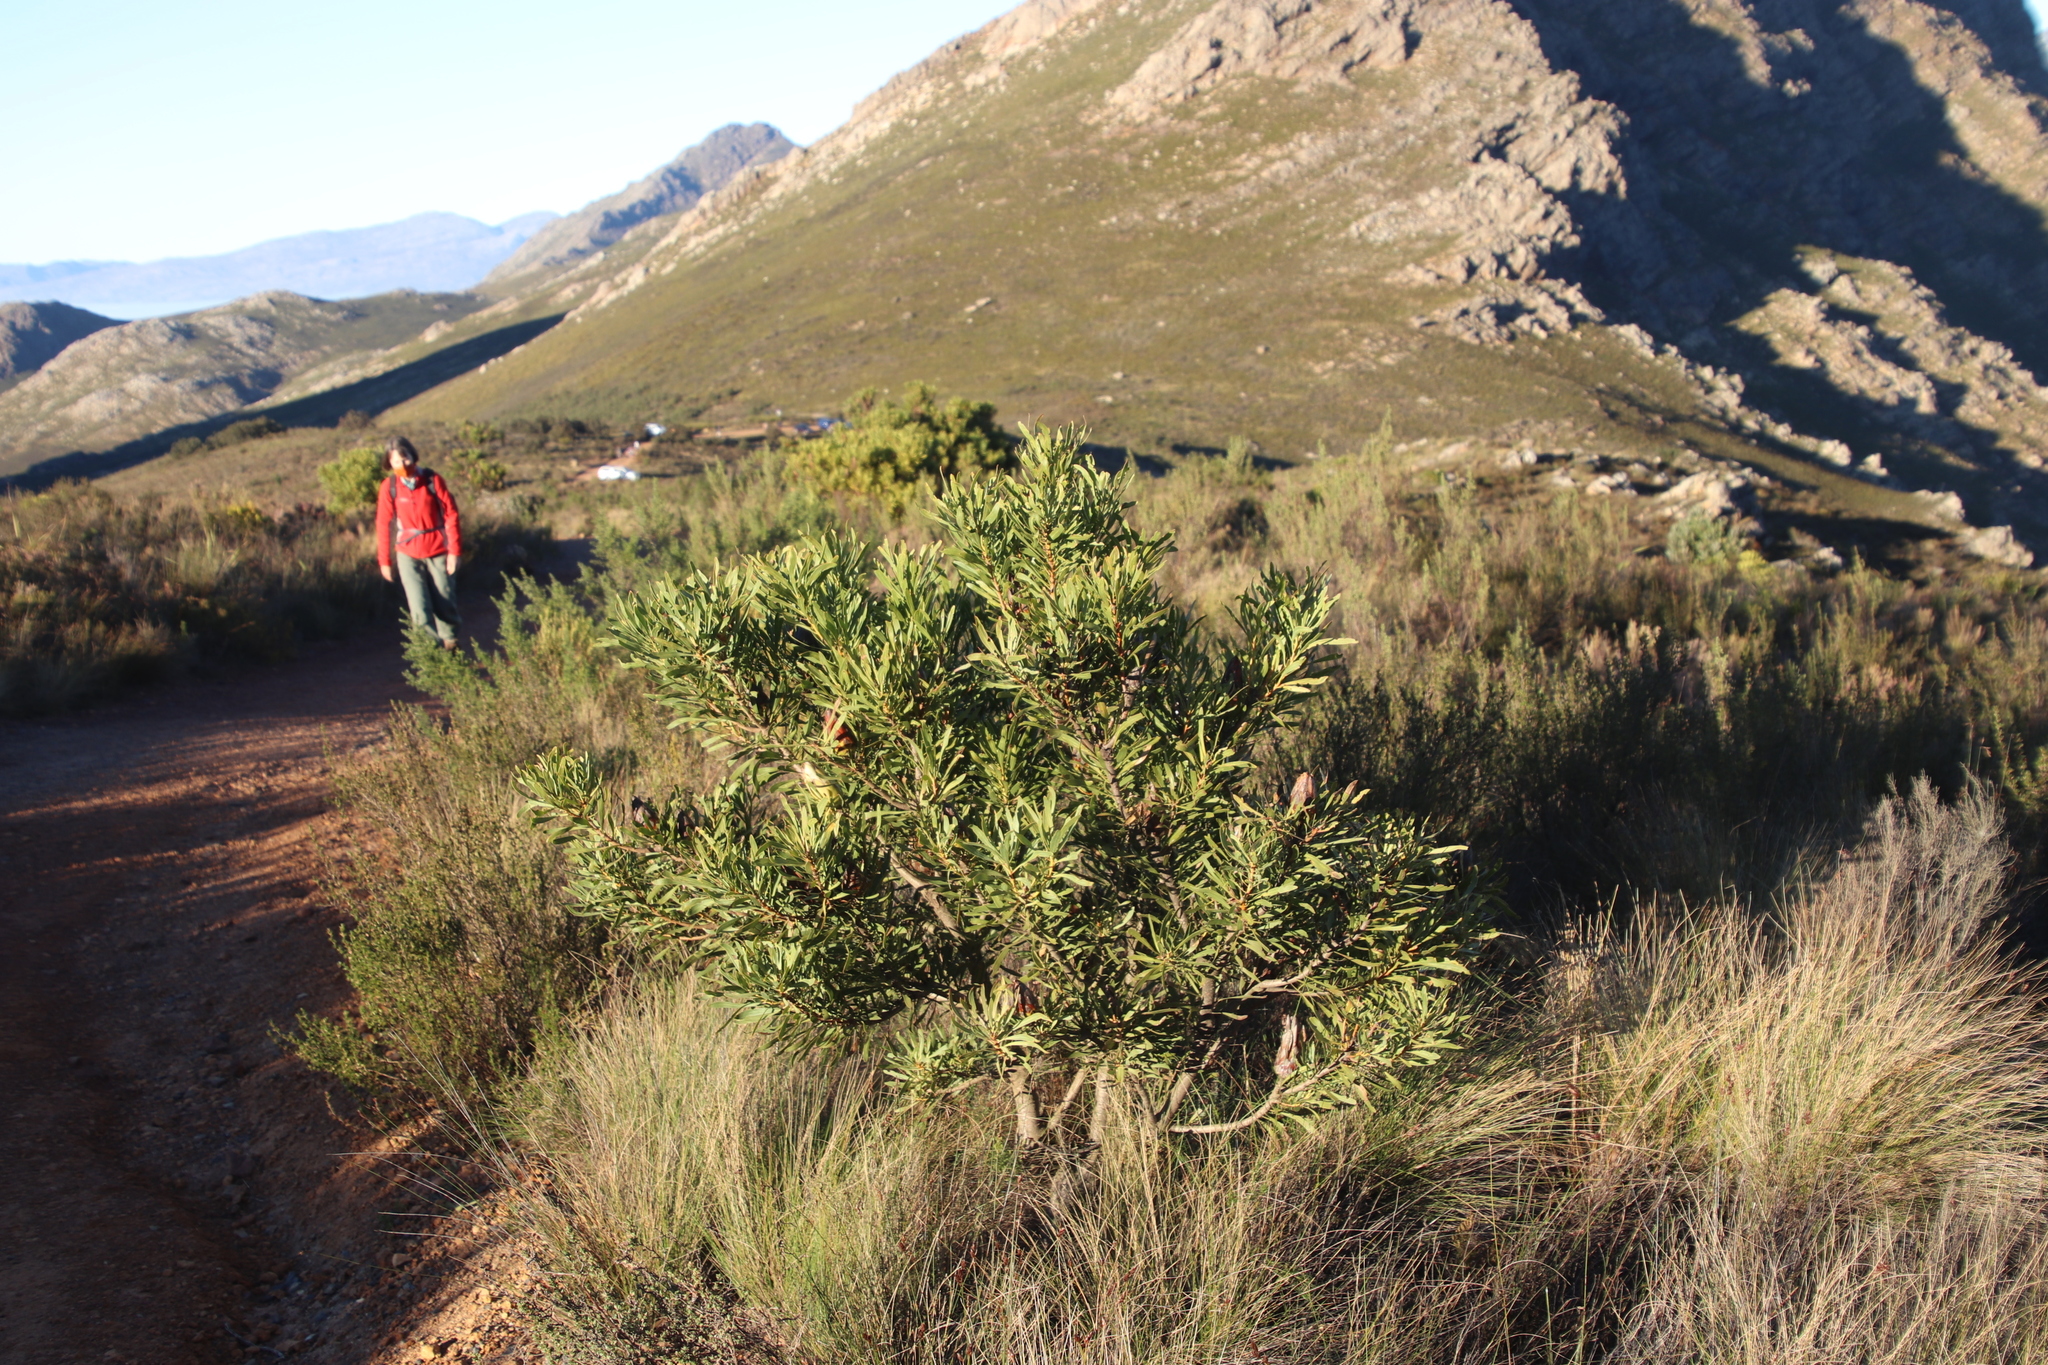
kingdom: Plantae
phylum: Tracheophyta
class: Magnoliopsida
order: Proteales
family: Proteaceae
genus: Protea
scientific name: Protea repens
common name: Sugarbush
